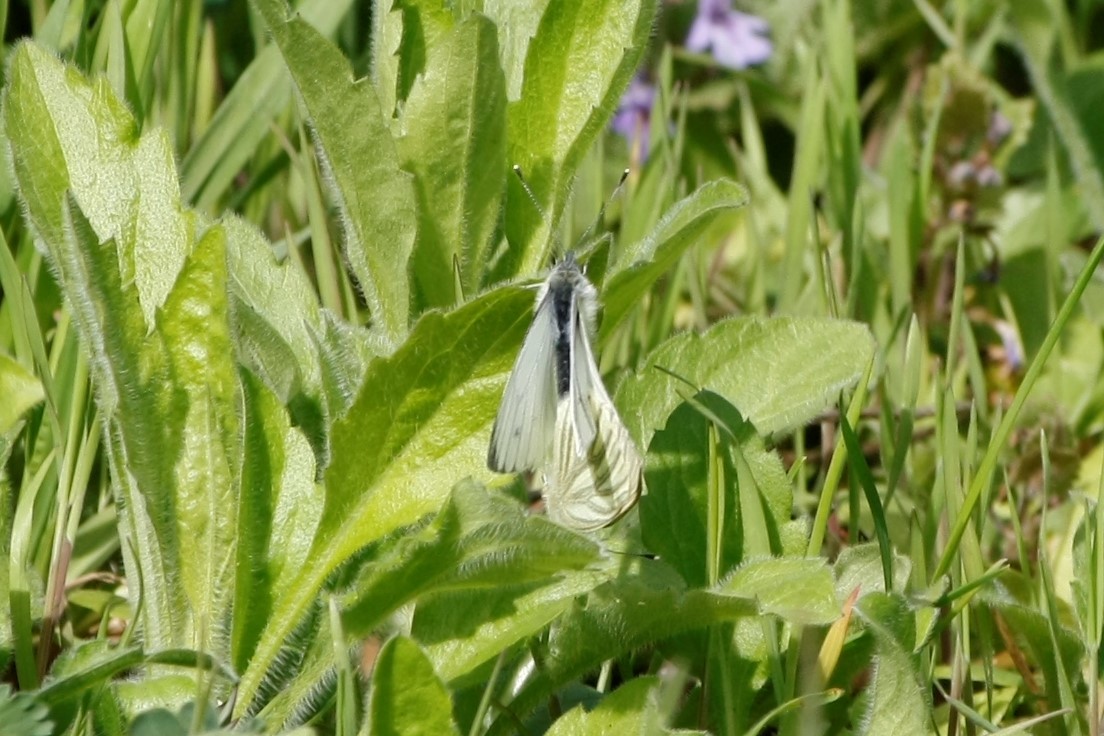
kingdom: Animalia
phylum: Arthropoda
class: Insecta
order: Lepidoptera
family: Pieridae
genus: Pieris
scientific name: Pieris napi
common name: Green-veined white
